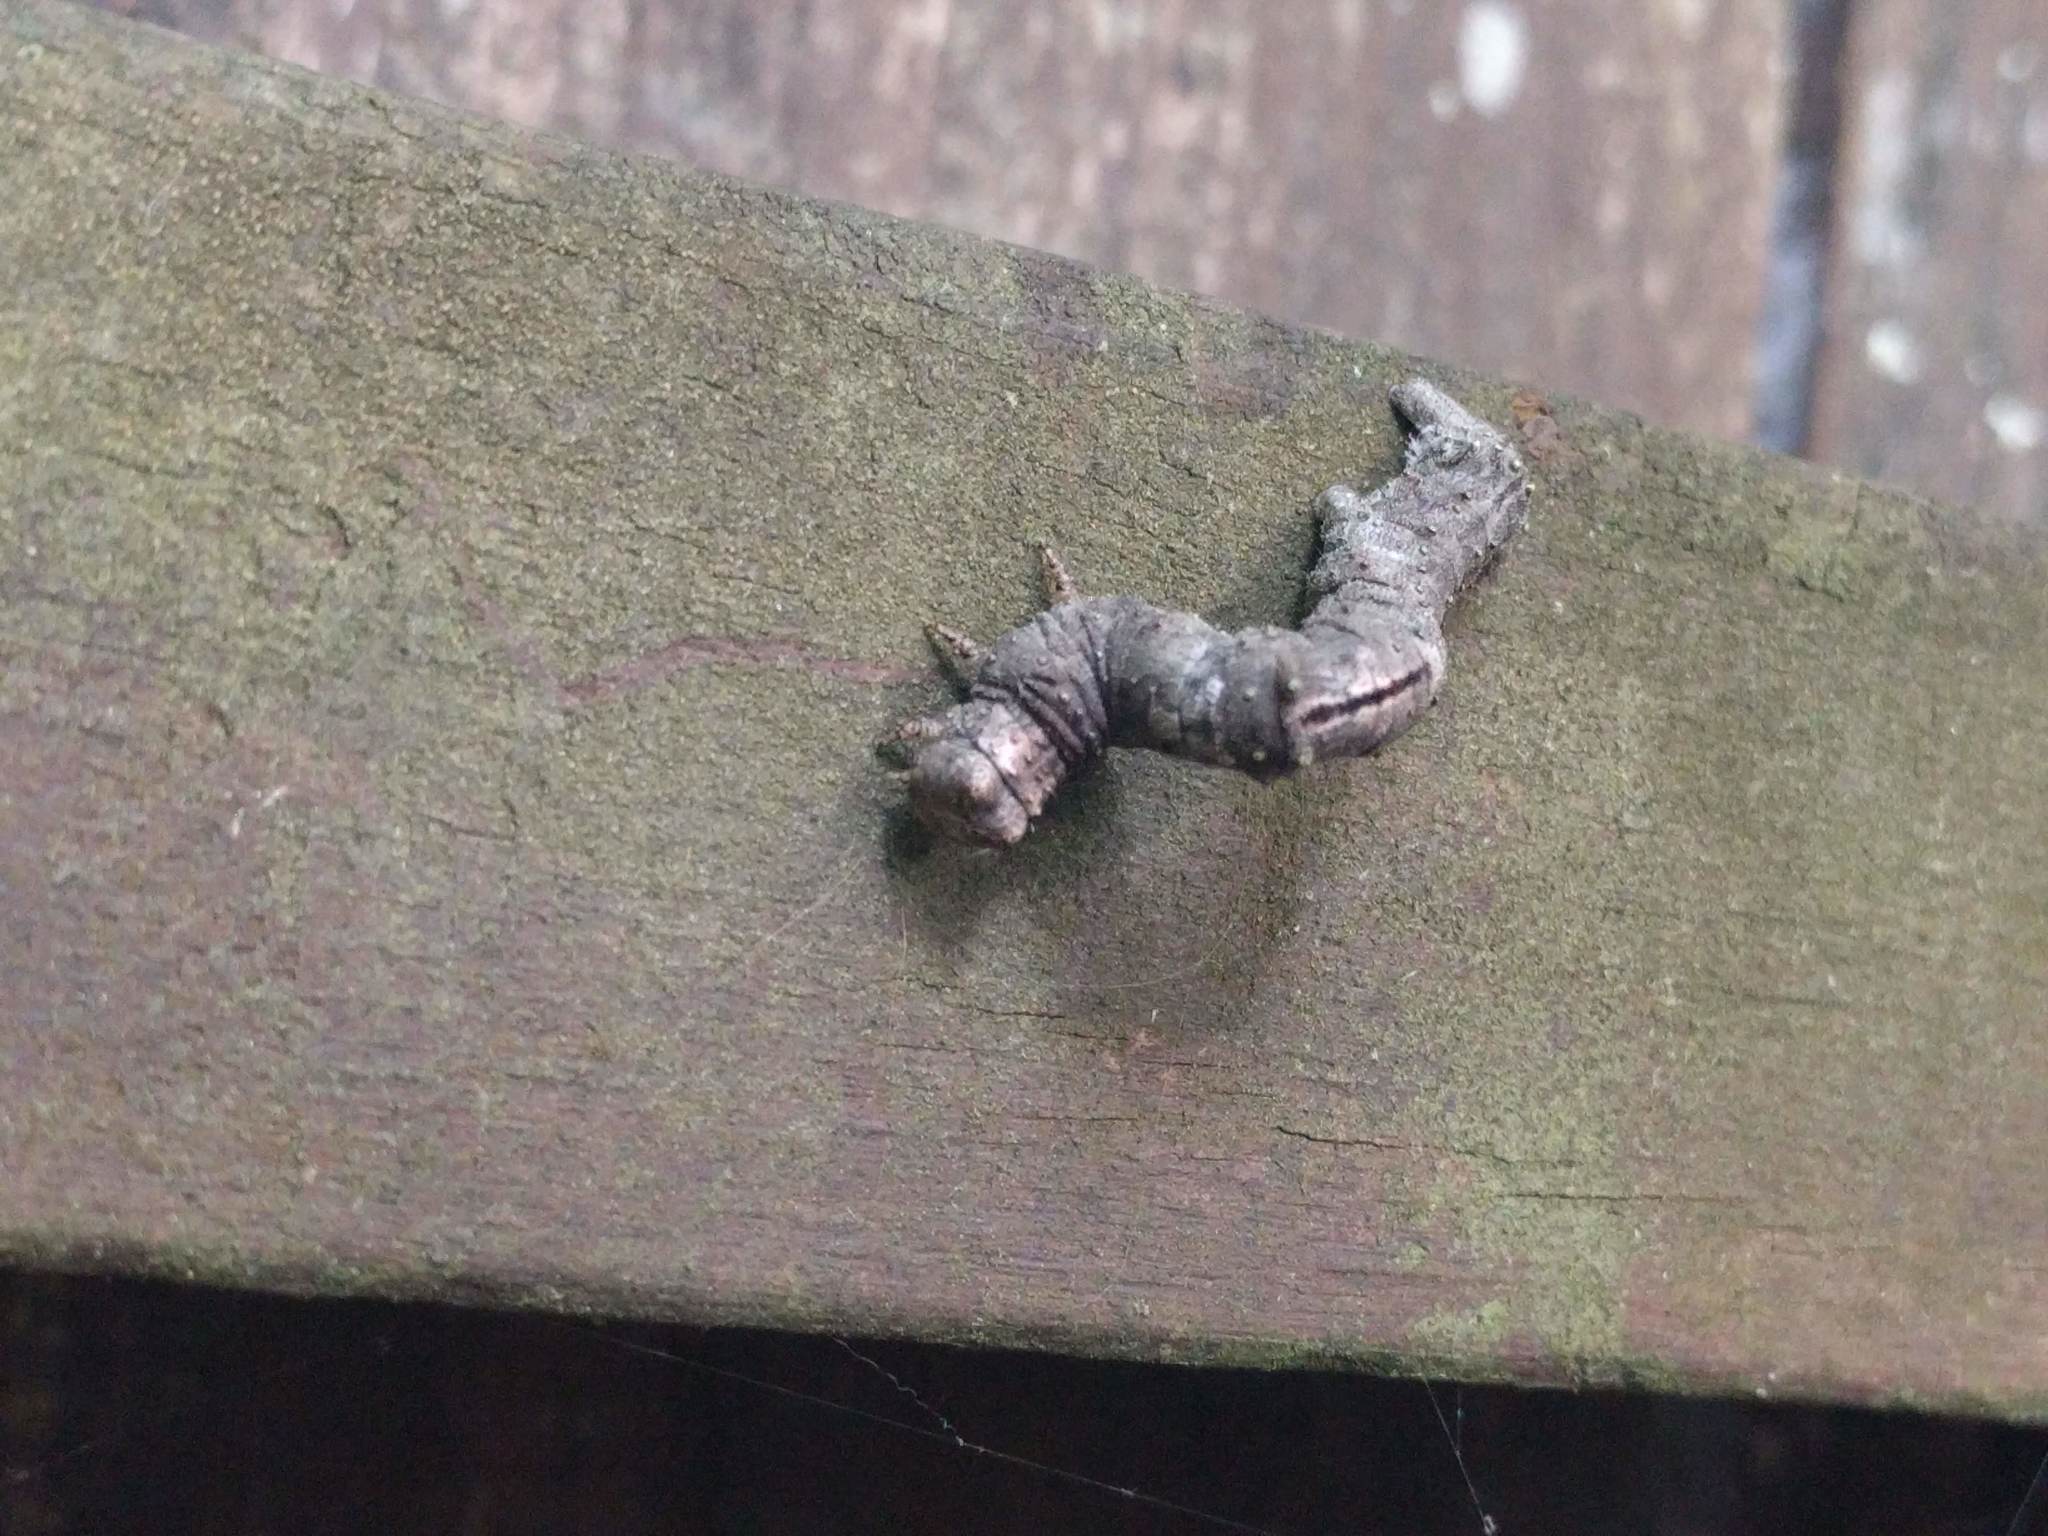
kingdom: Animalia
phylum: Arthropoda
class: Insecta
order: Megaloptera
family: Corydalidae
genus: Nigronia
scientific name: Nigronia fasciata
